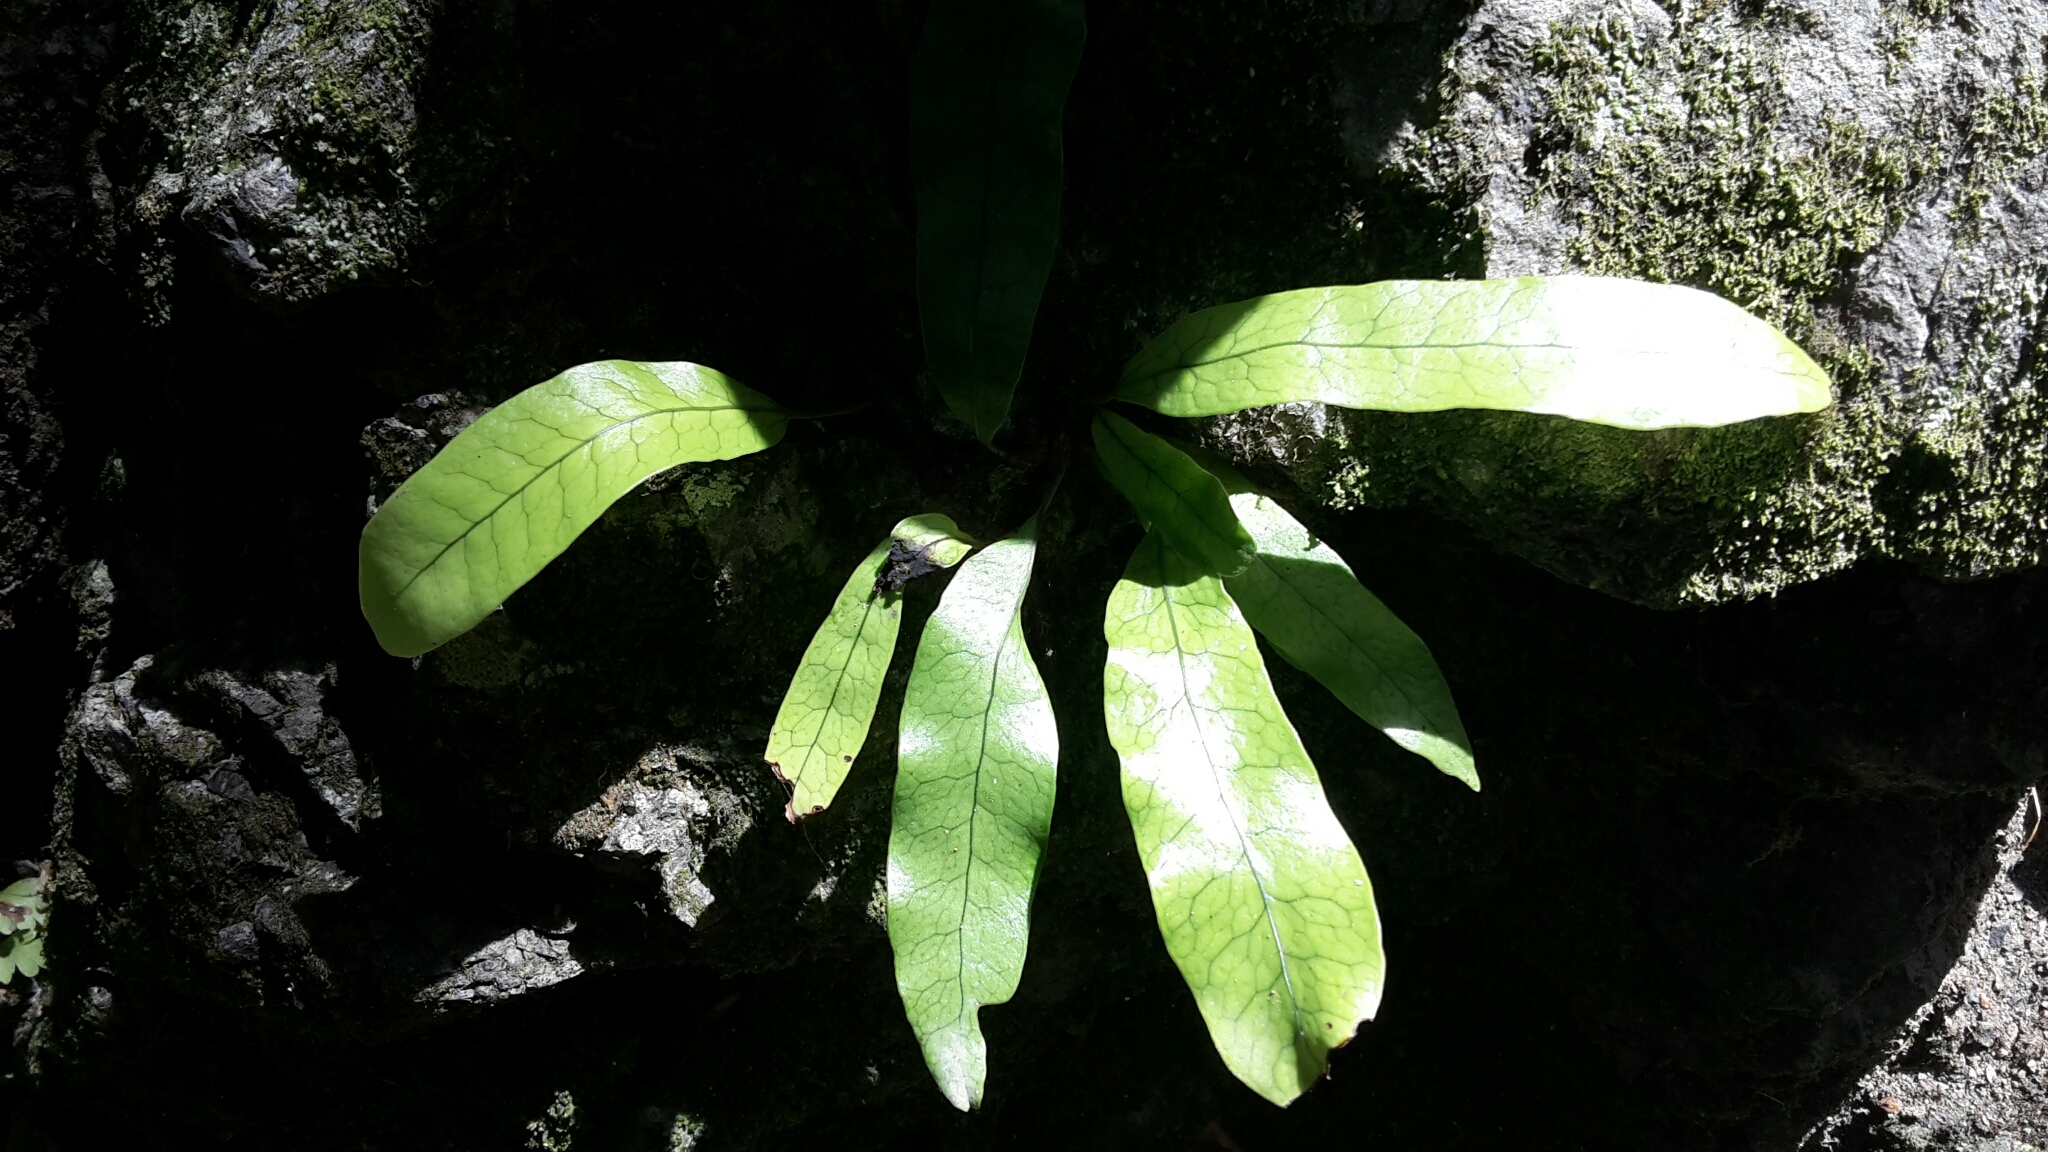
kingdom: Plantae
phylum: Tracheophyta
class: Polypodiopsida
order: Polypodiales
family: Polypodiaceae
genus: Lecanopteris
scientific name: Lecanopteris pustulata
